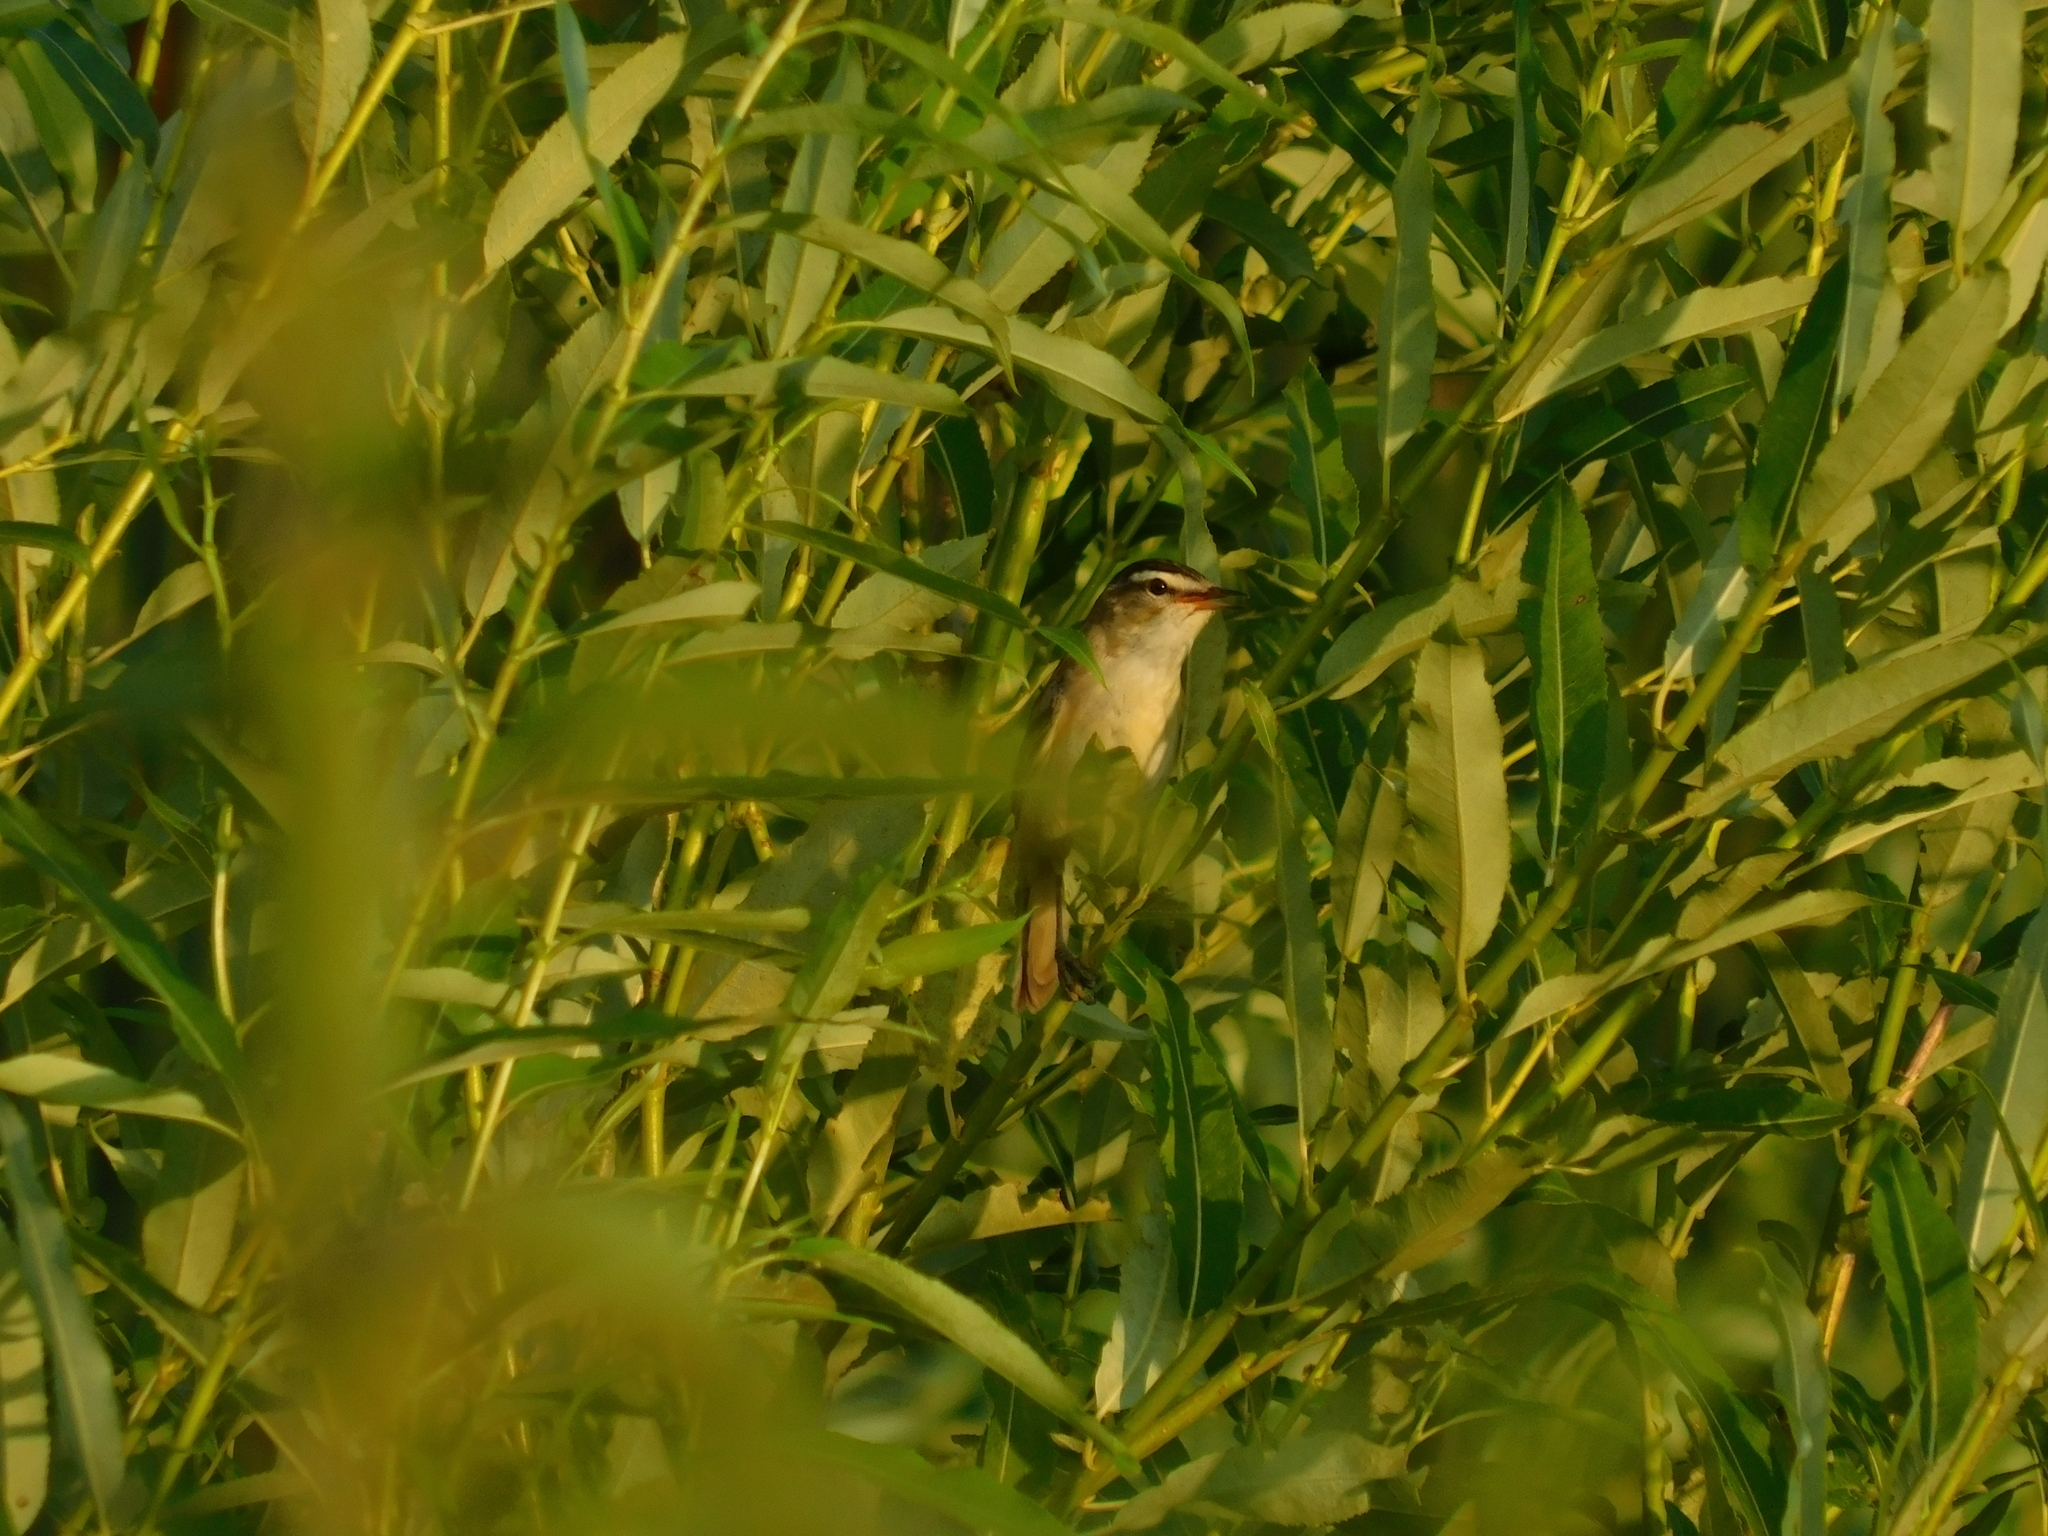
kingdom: Animalia
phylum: Chordata
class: Aves
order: Passeriformes
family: Acrocephalidae
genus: Acrocephalus
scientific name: Acrocephalus schoenobaenus
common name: Sedge warbler
